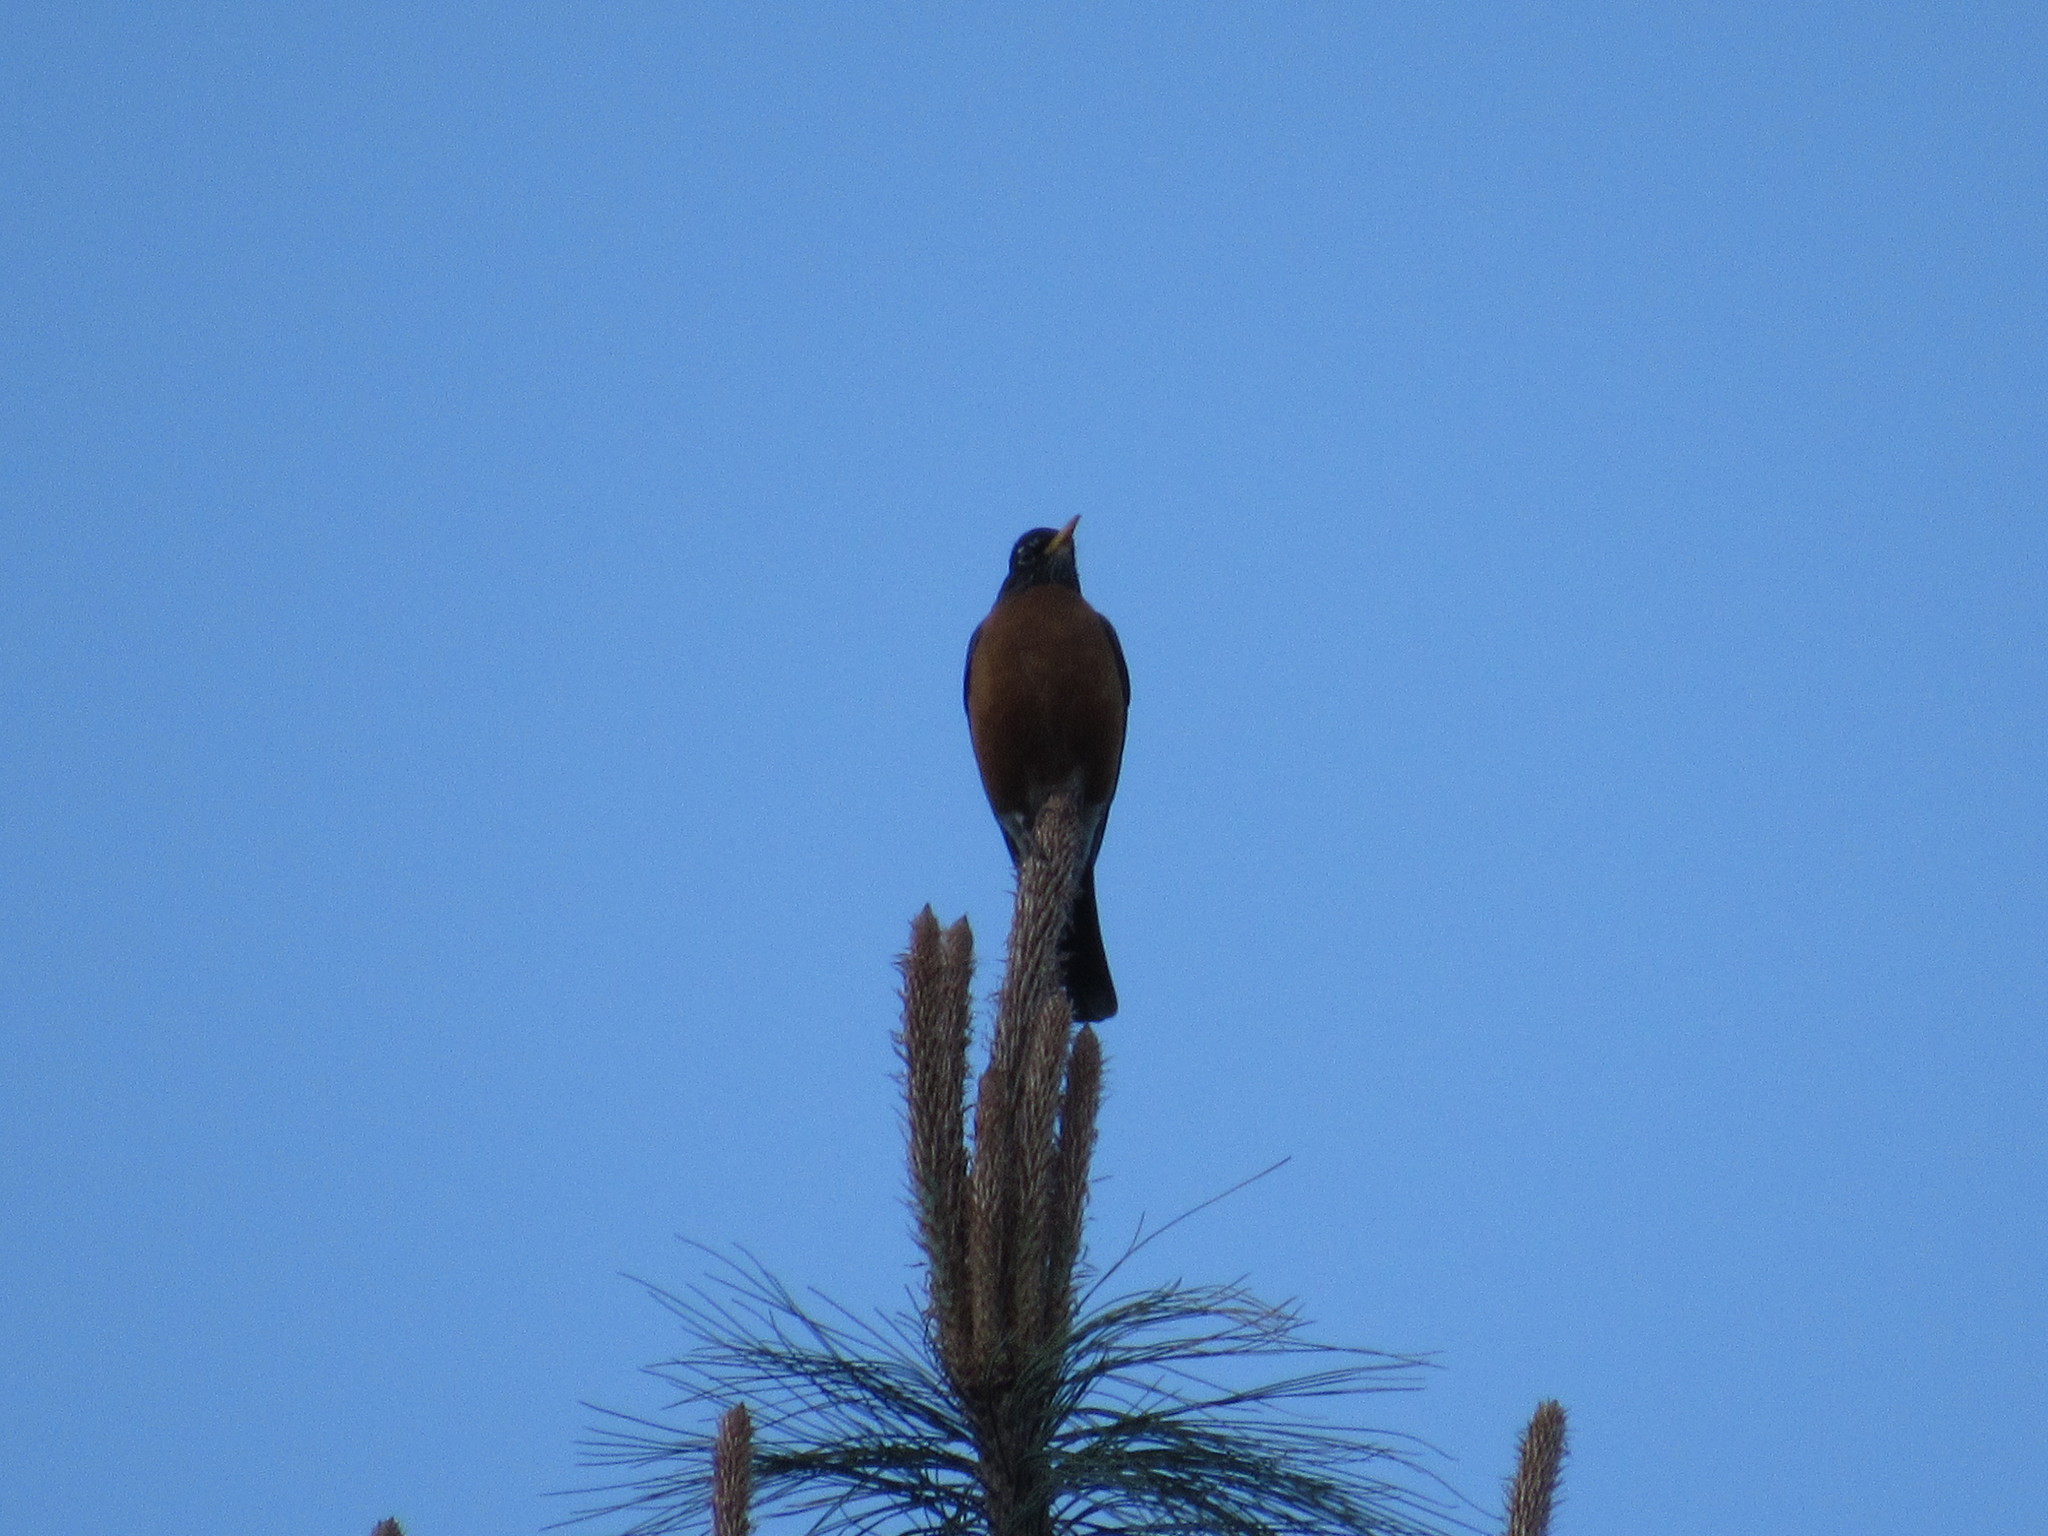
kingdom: Animalia
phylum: Chordata
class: Aves
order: Passeriformes
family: Turdidae
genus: Turdus
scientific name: Turdus migratorius
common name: American robin
